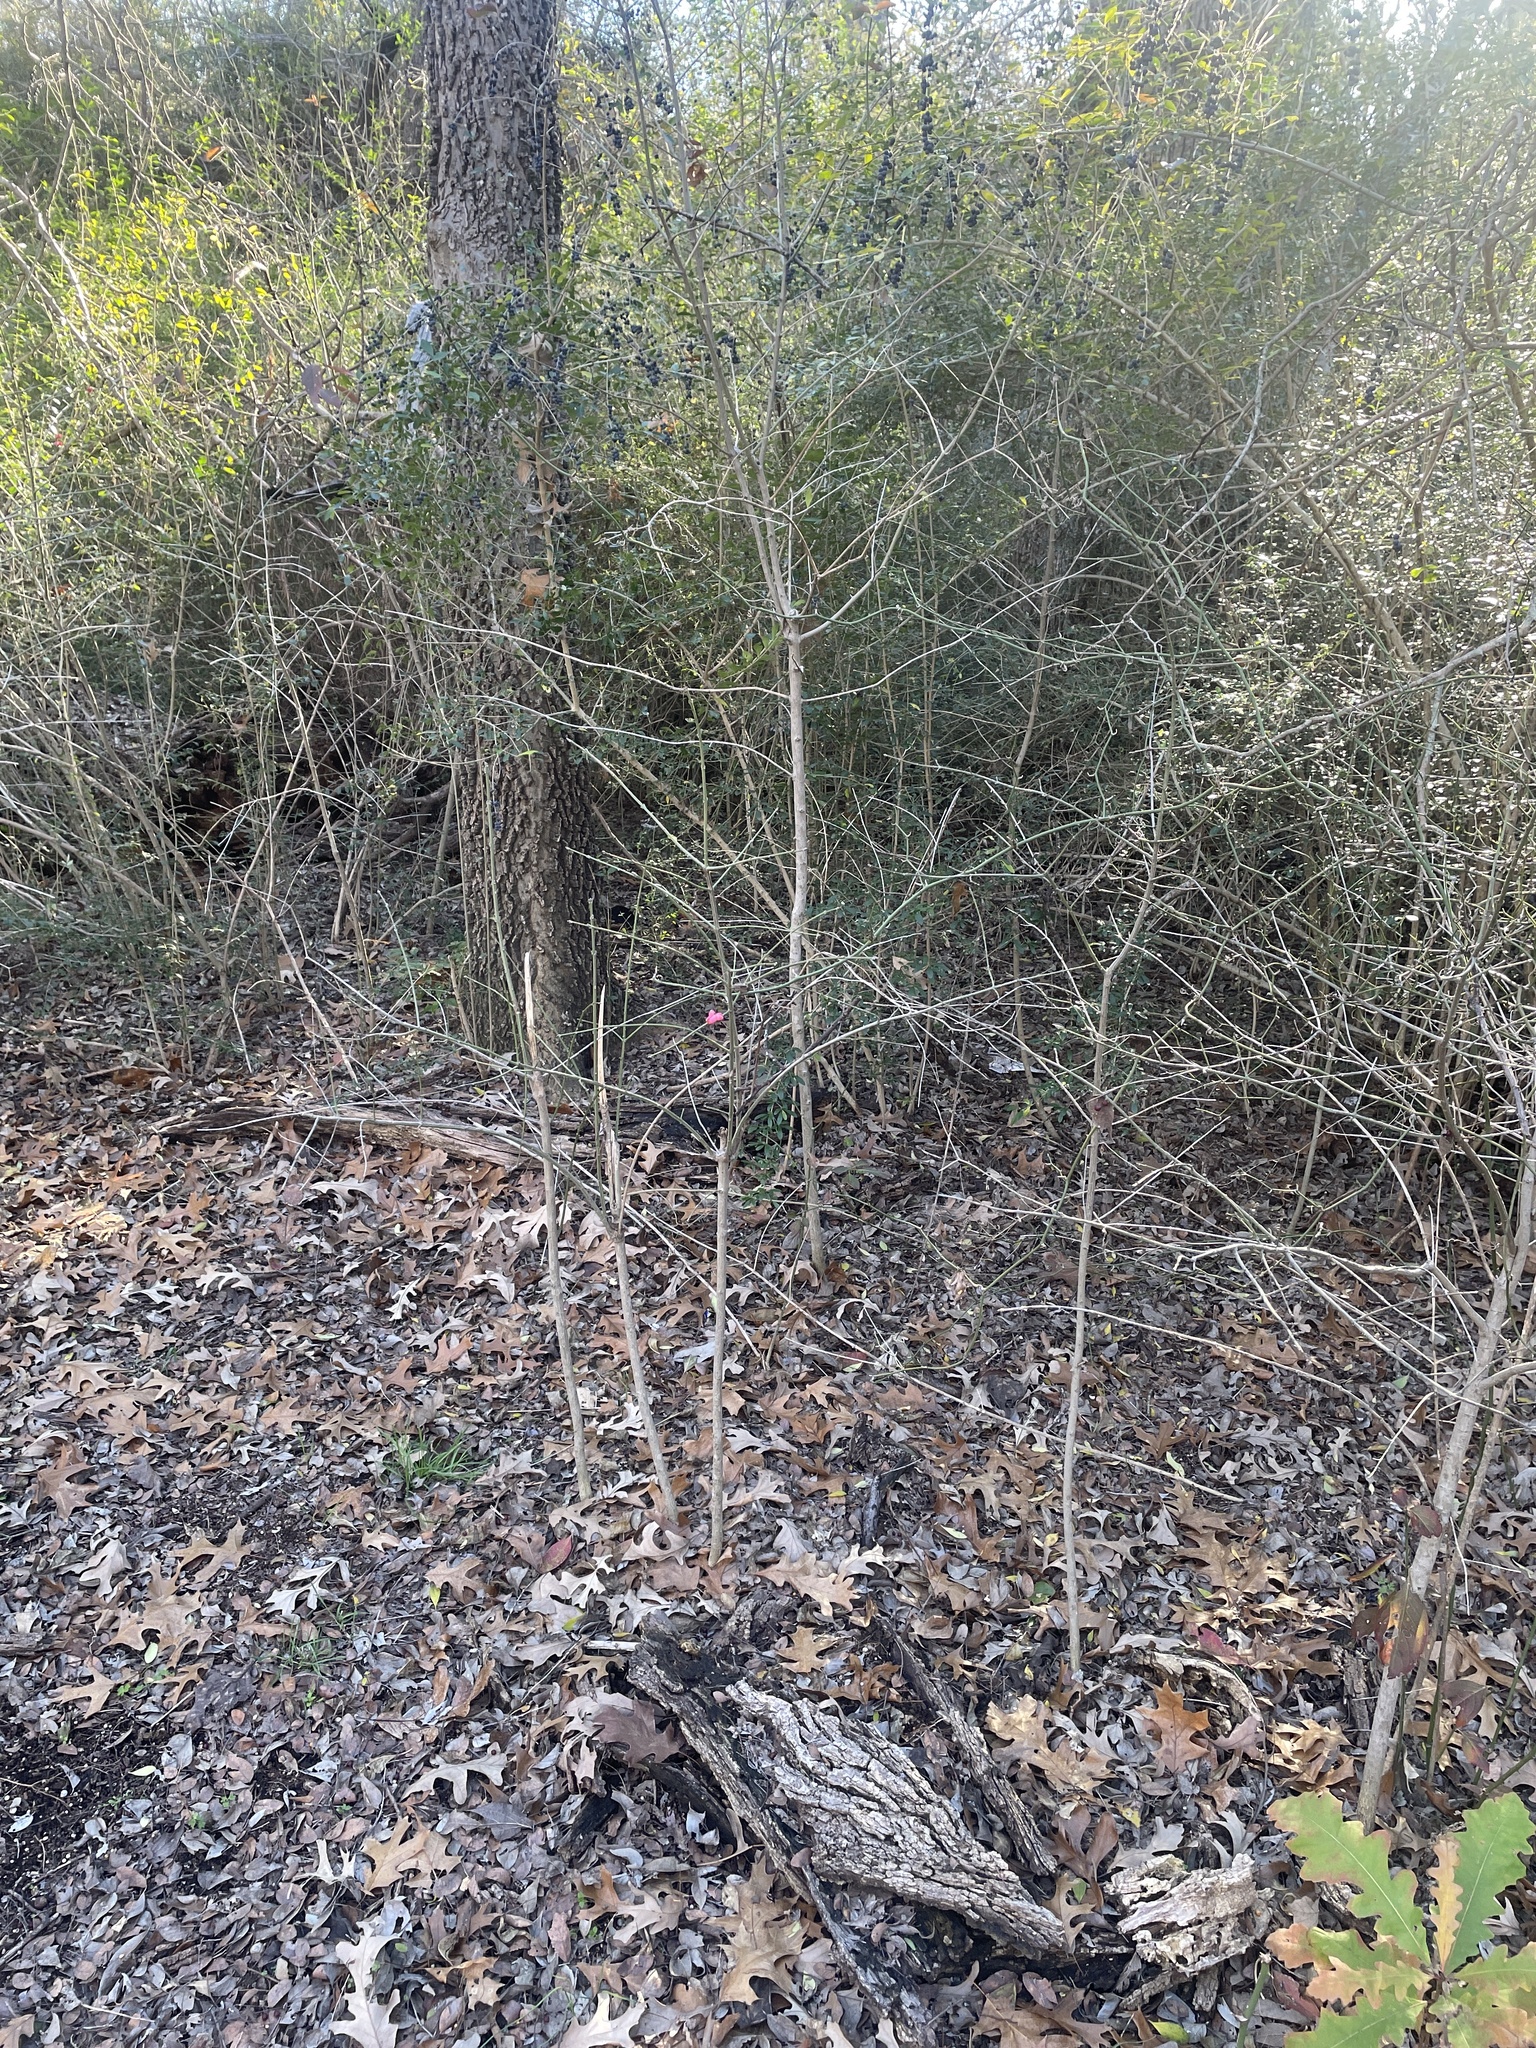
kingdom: Plantae
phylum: Tracheophyta
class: Magnoliopsida
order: Celastrales
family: Celastraceae
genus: Euonymus
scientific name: Euonymus atropurpureus
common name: Eastern wahoo
